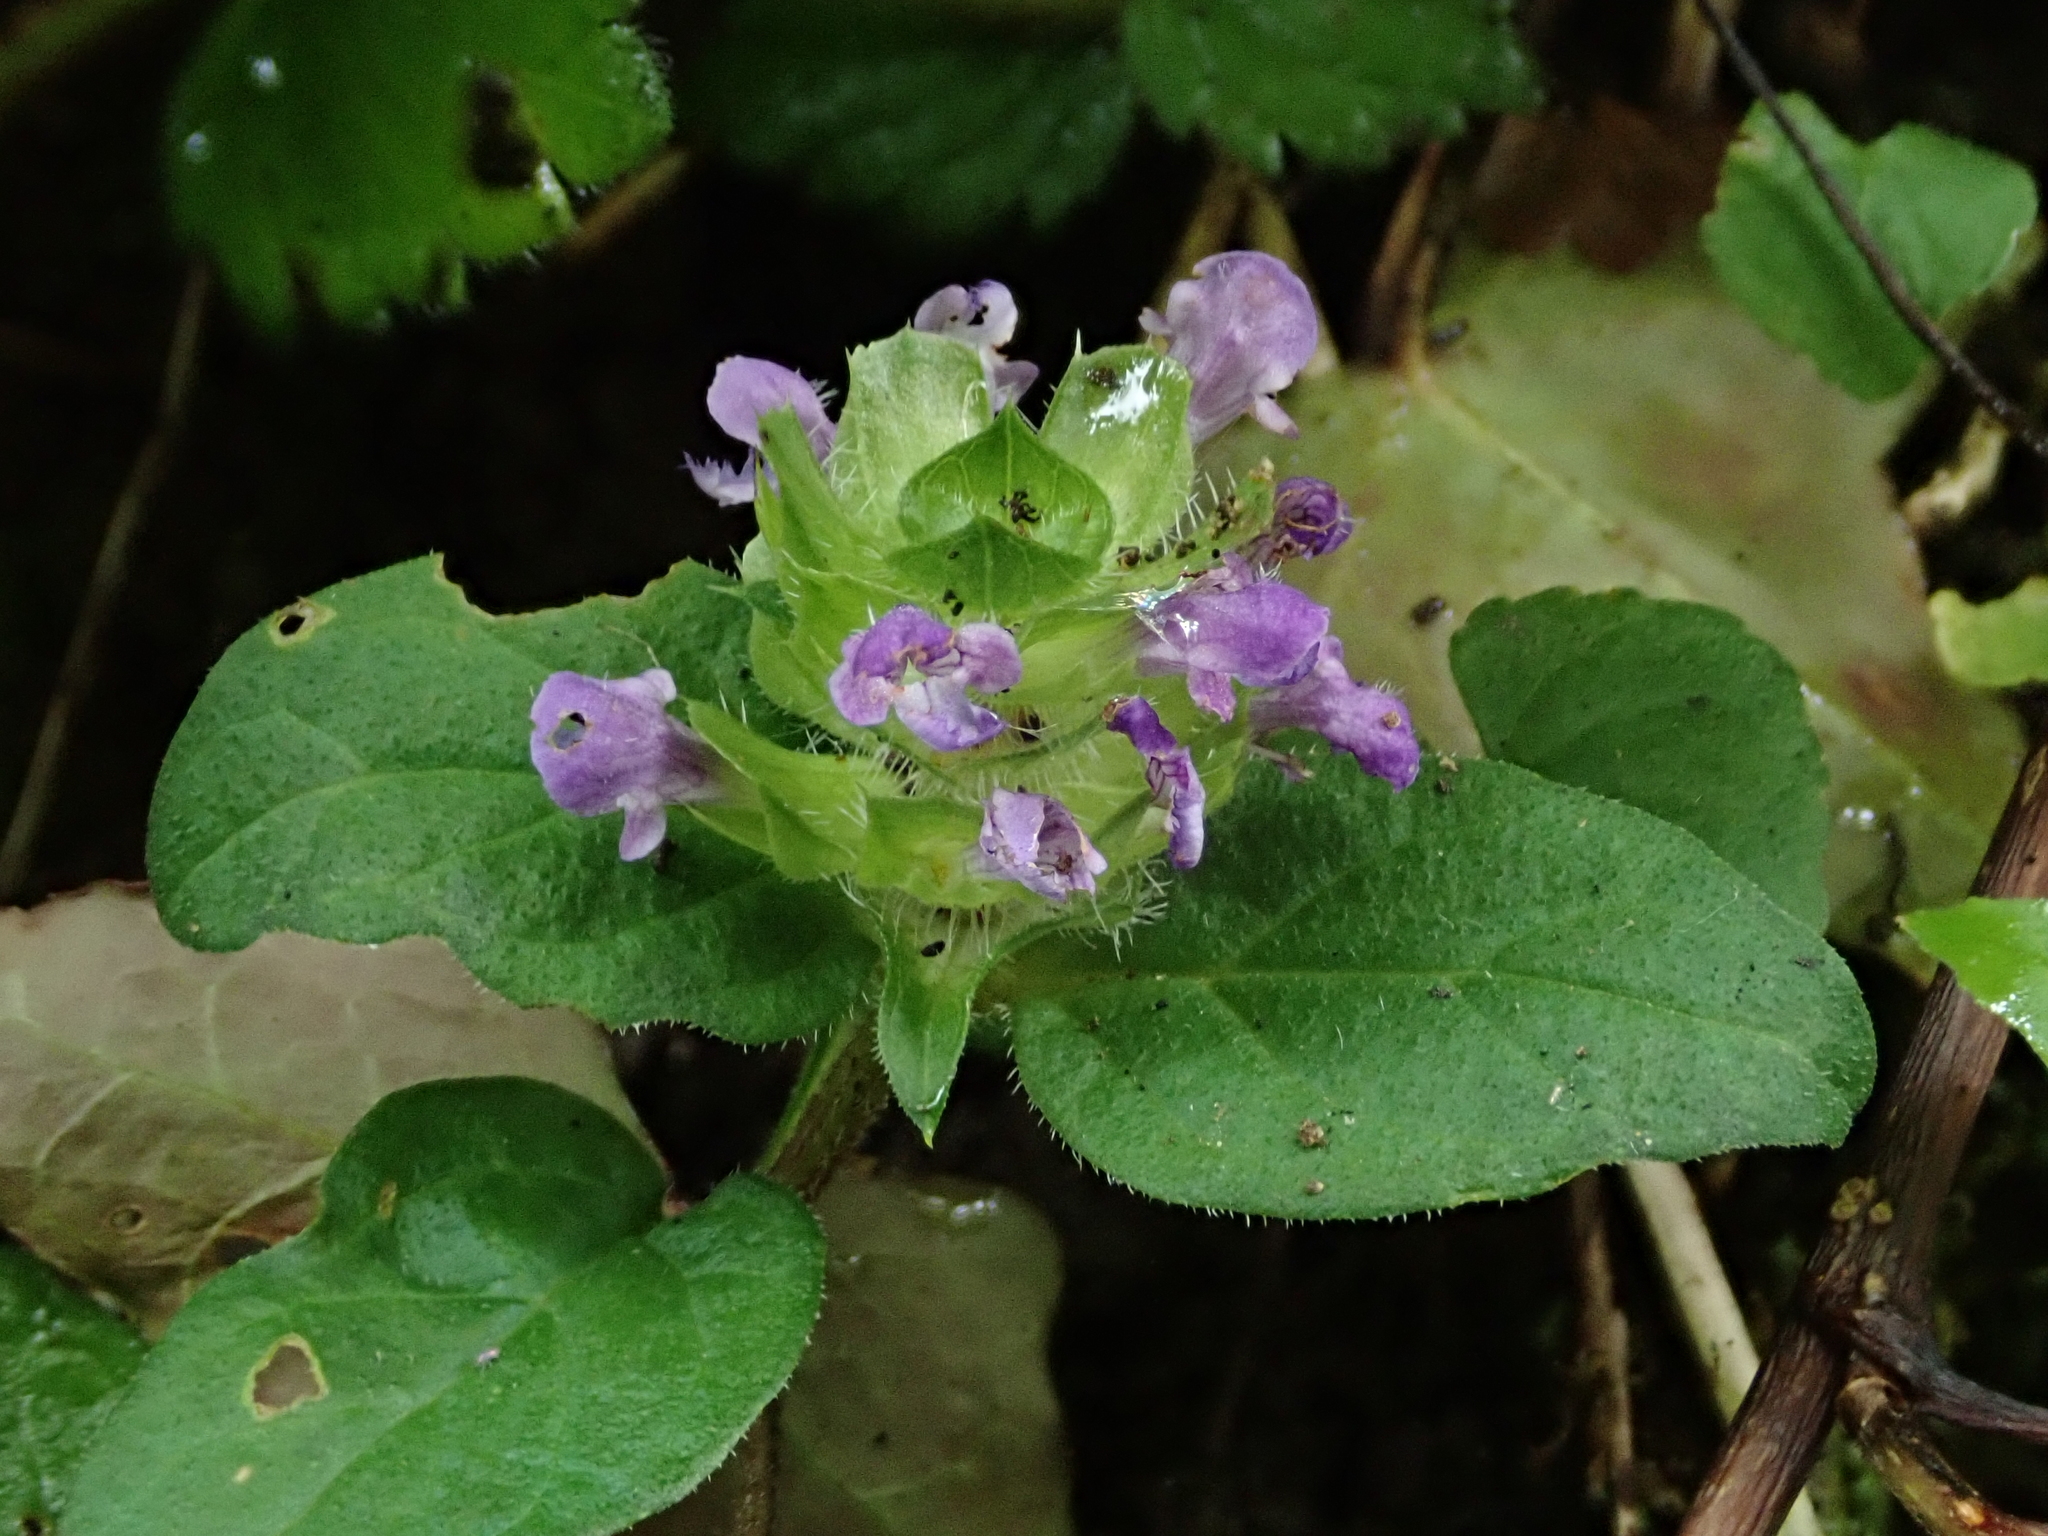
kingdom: Plantae
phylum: Tracheophyta
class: Magnoliopsida
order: Lamiales
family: Lamiaceae
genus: Prunella
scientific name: Prunella vulgaris
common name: Heal-all
